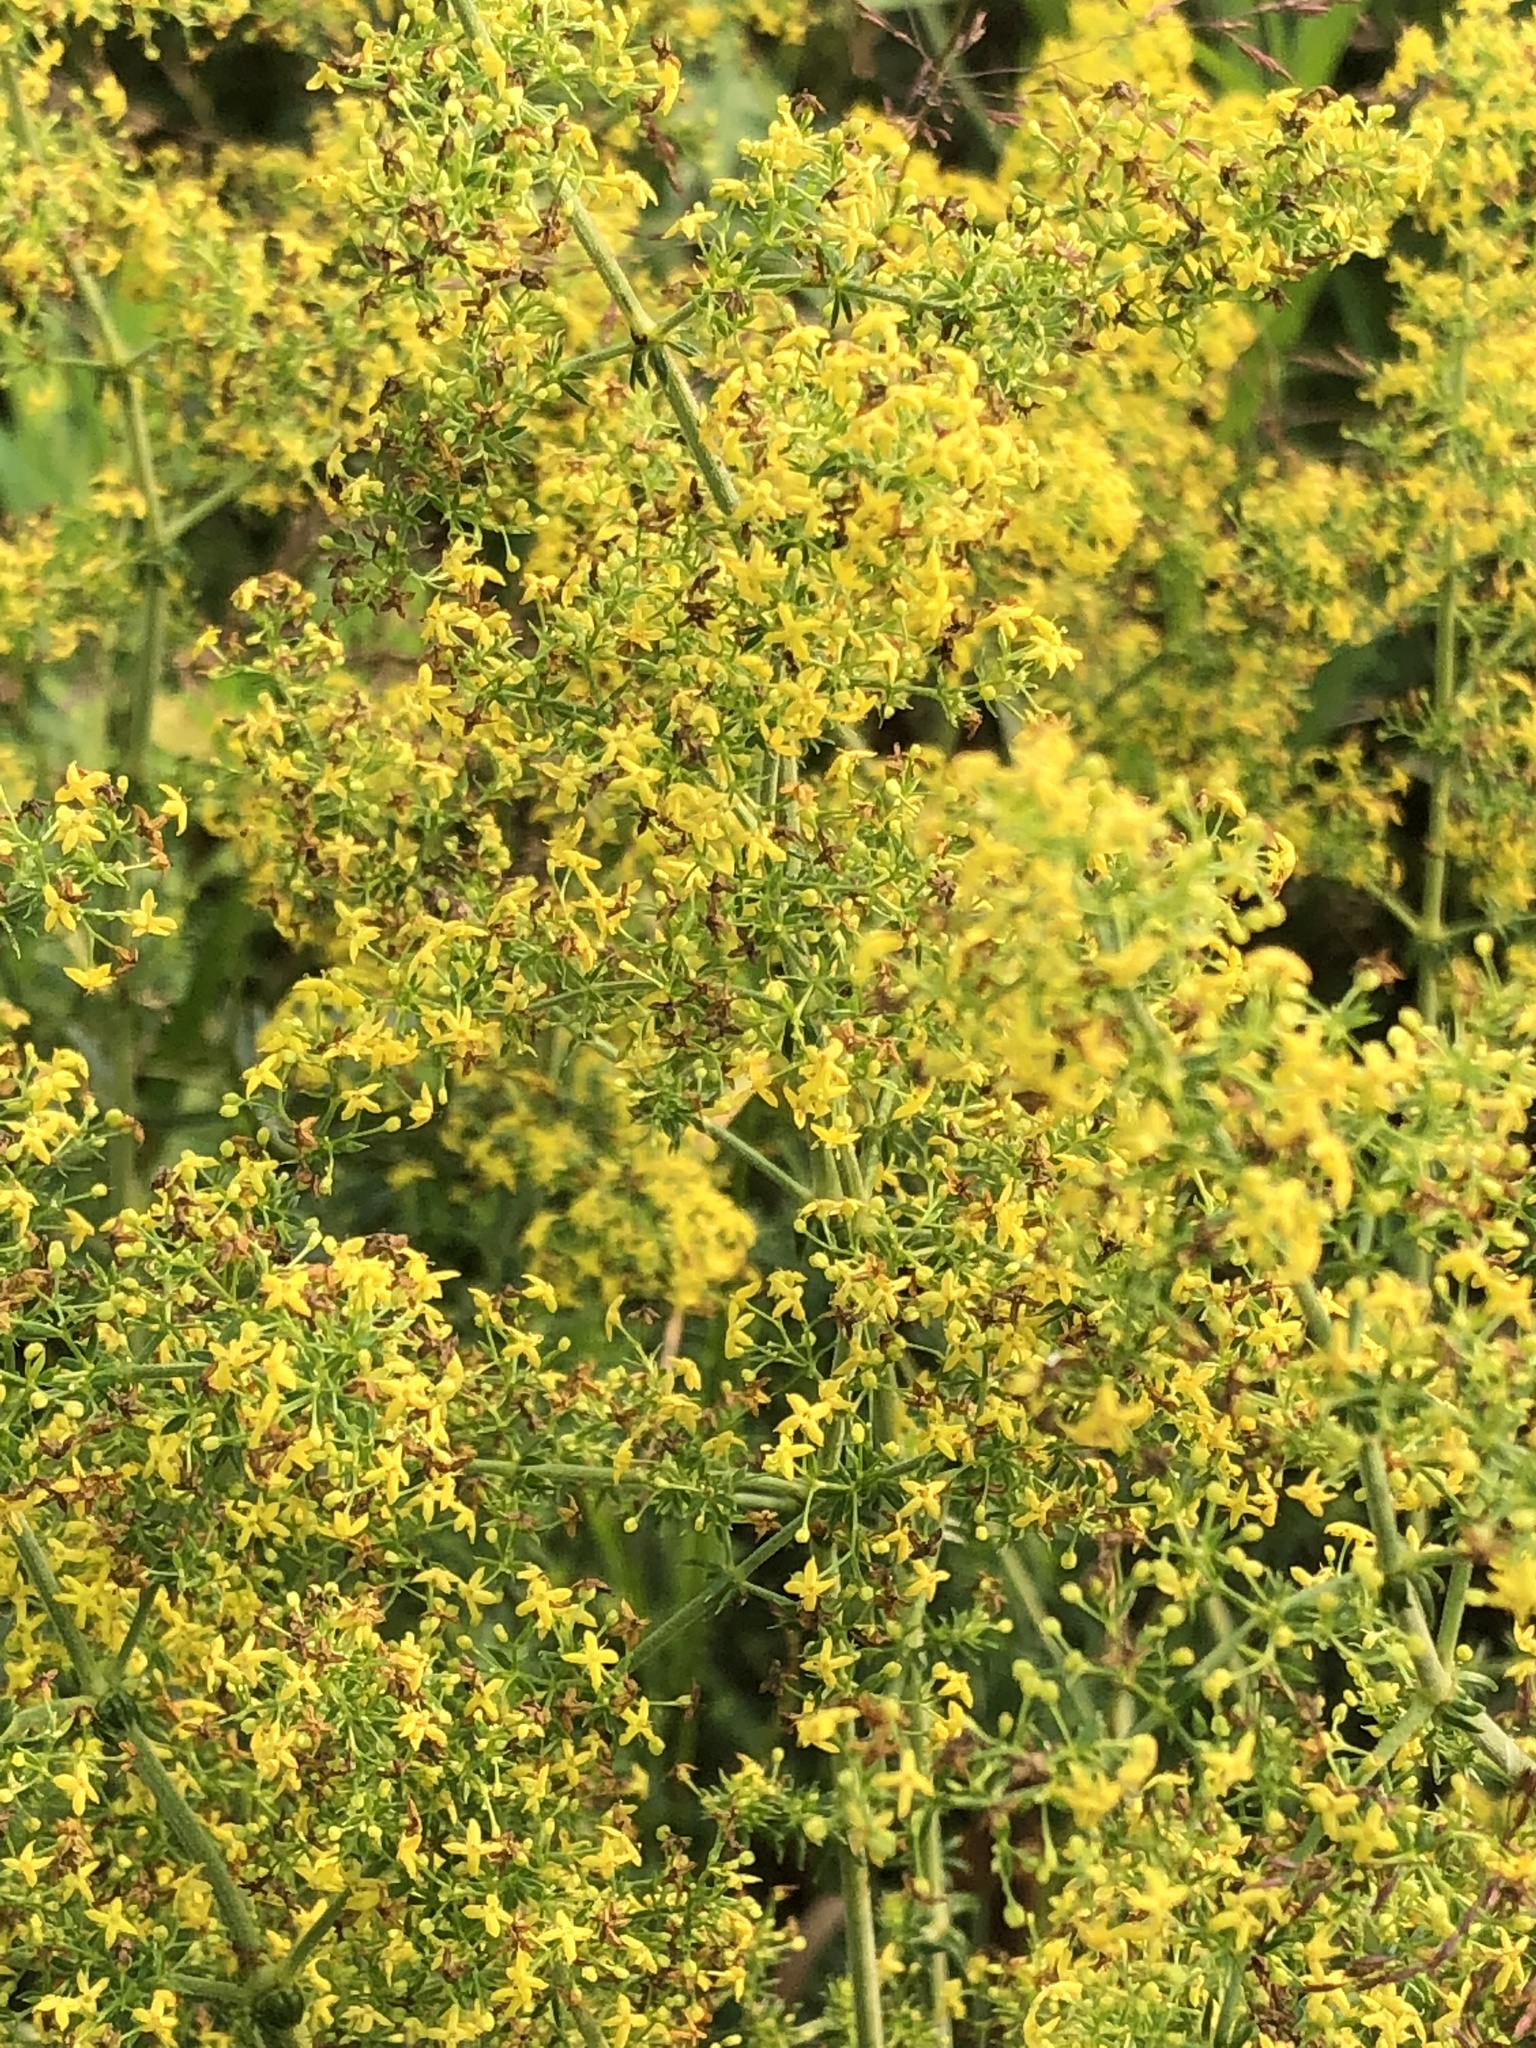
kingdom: Plantae
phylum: Tracheophyta
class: Magnoliopsida
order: Gentianales
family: Rubiaceae
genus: Galium
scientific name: Galium verum
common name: Lady's bedstraw
